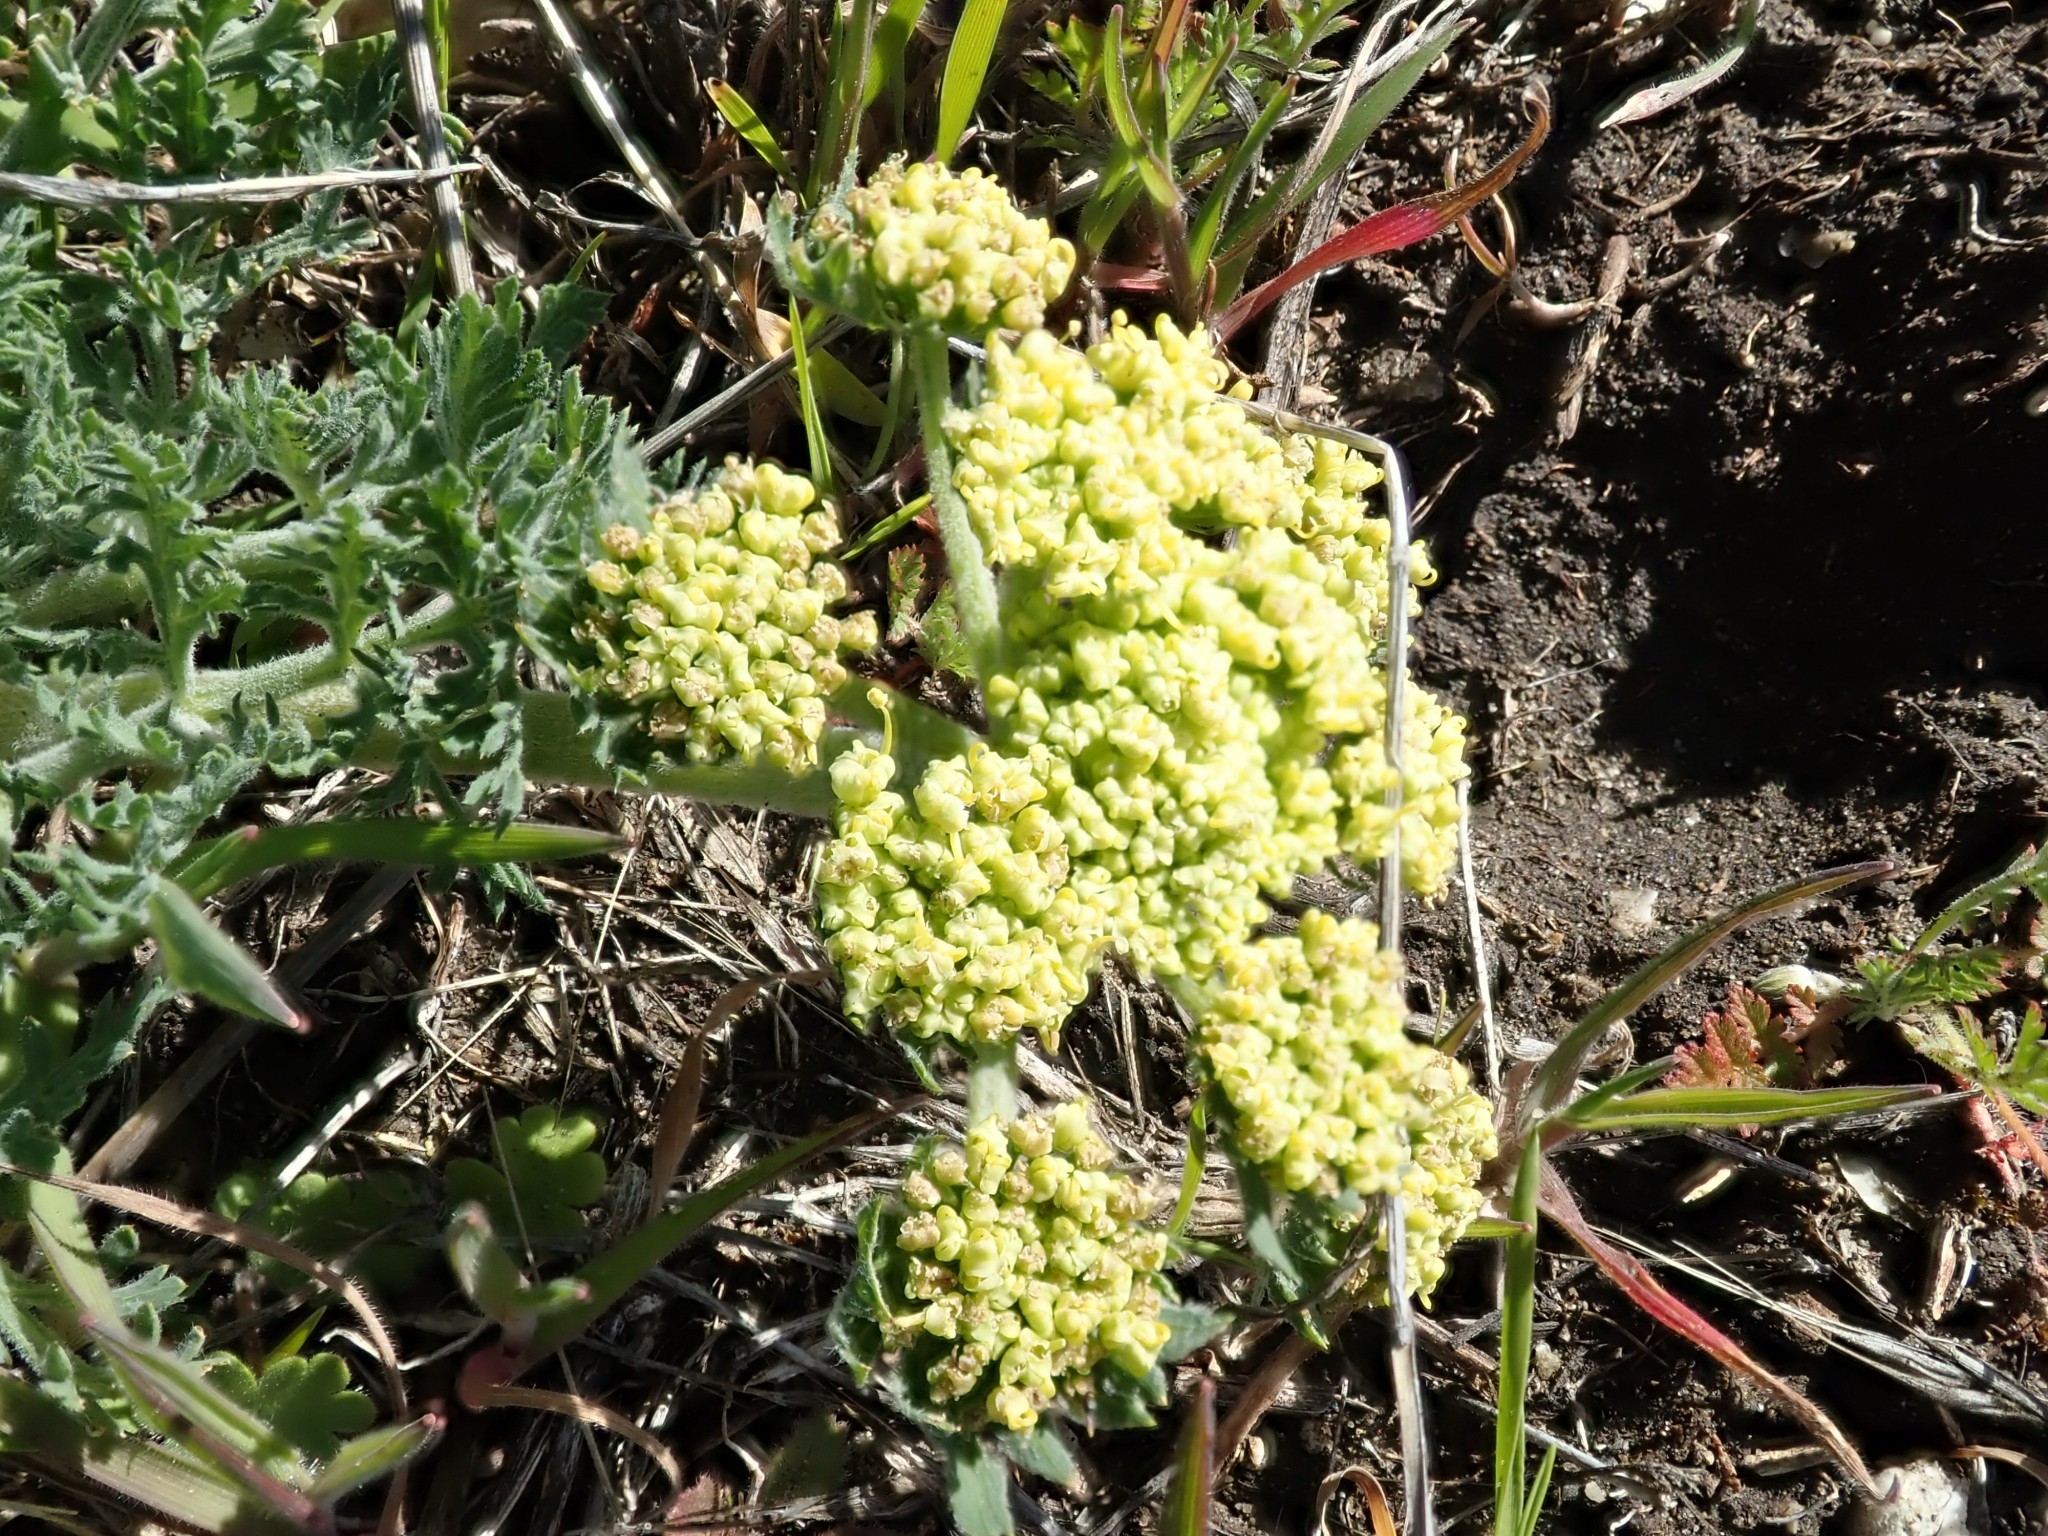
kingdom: Plantae
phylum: Tracheophyta
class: Magnoliopsida
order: Apiales
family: Apiaceae
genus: Lomatium
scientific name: Lomatium macrocarpum
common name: Big-seed biscuitroot
